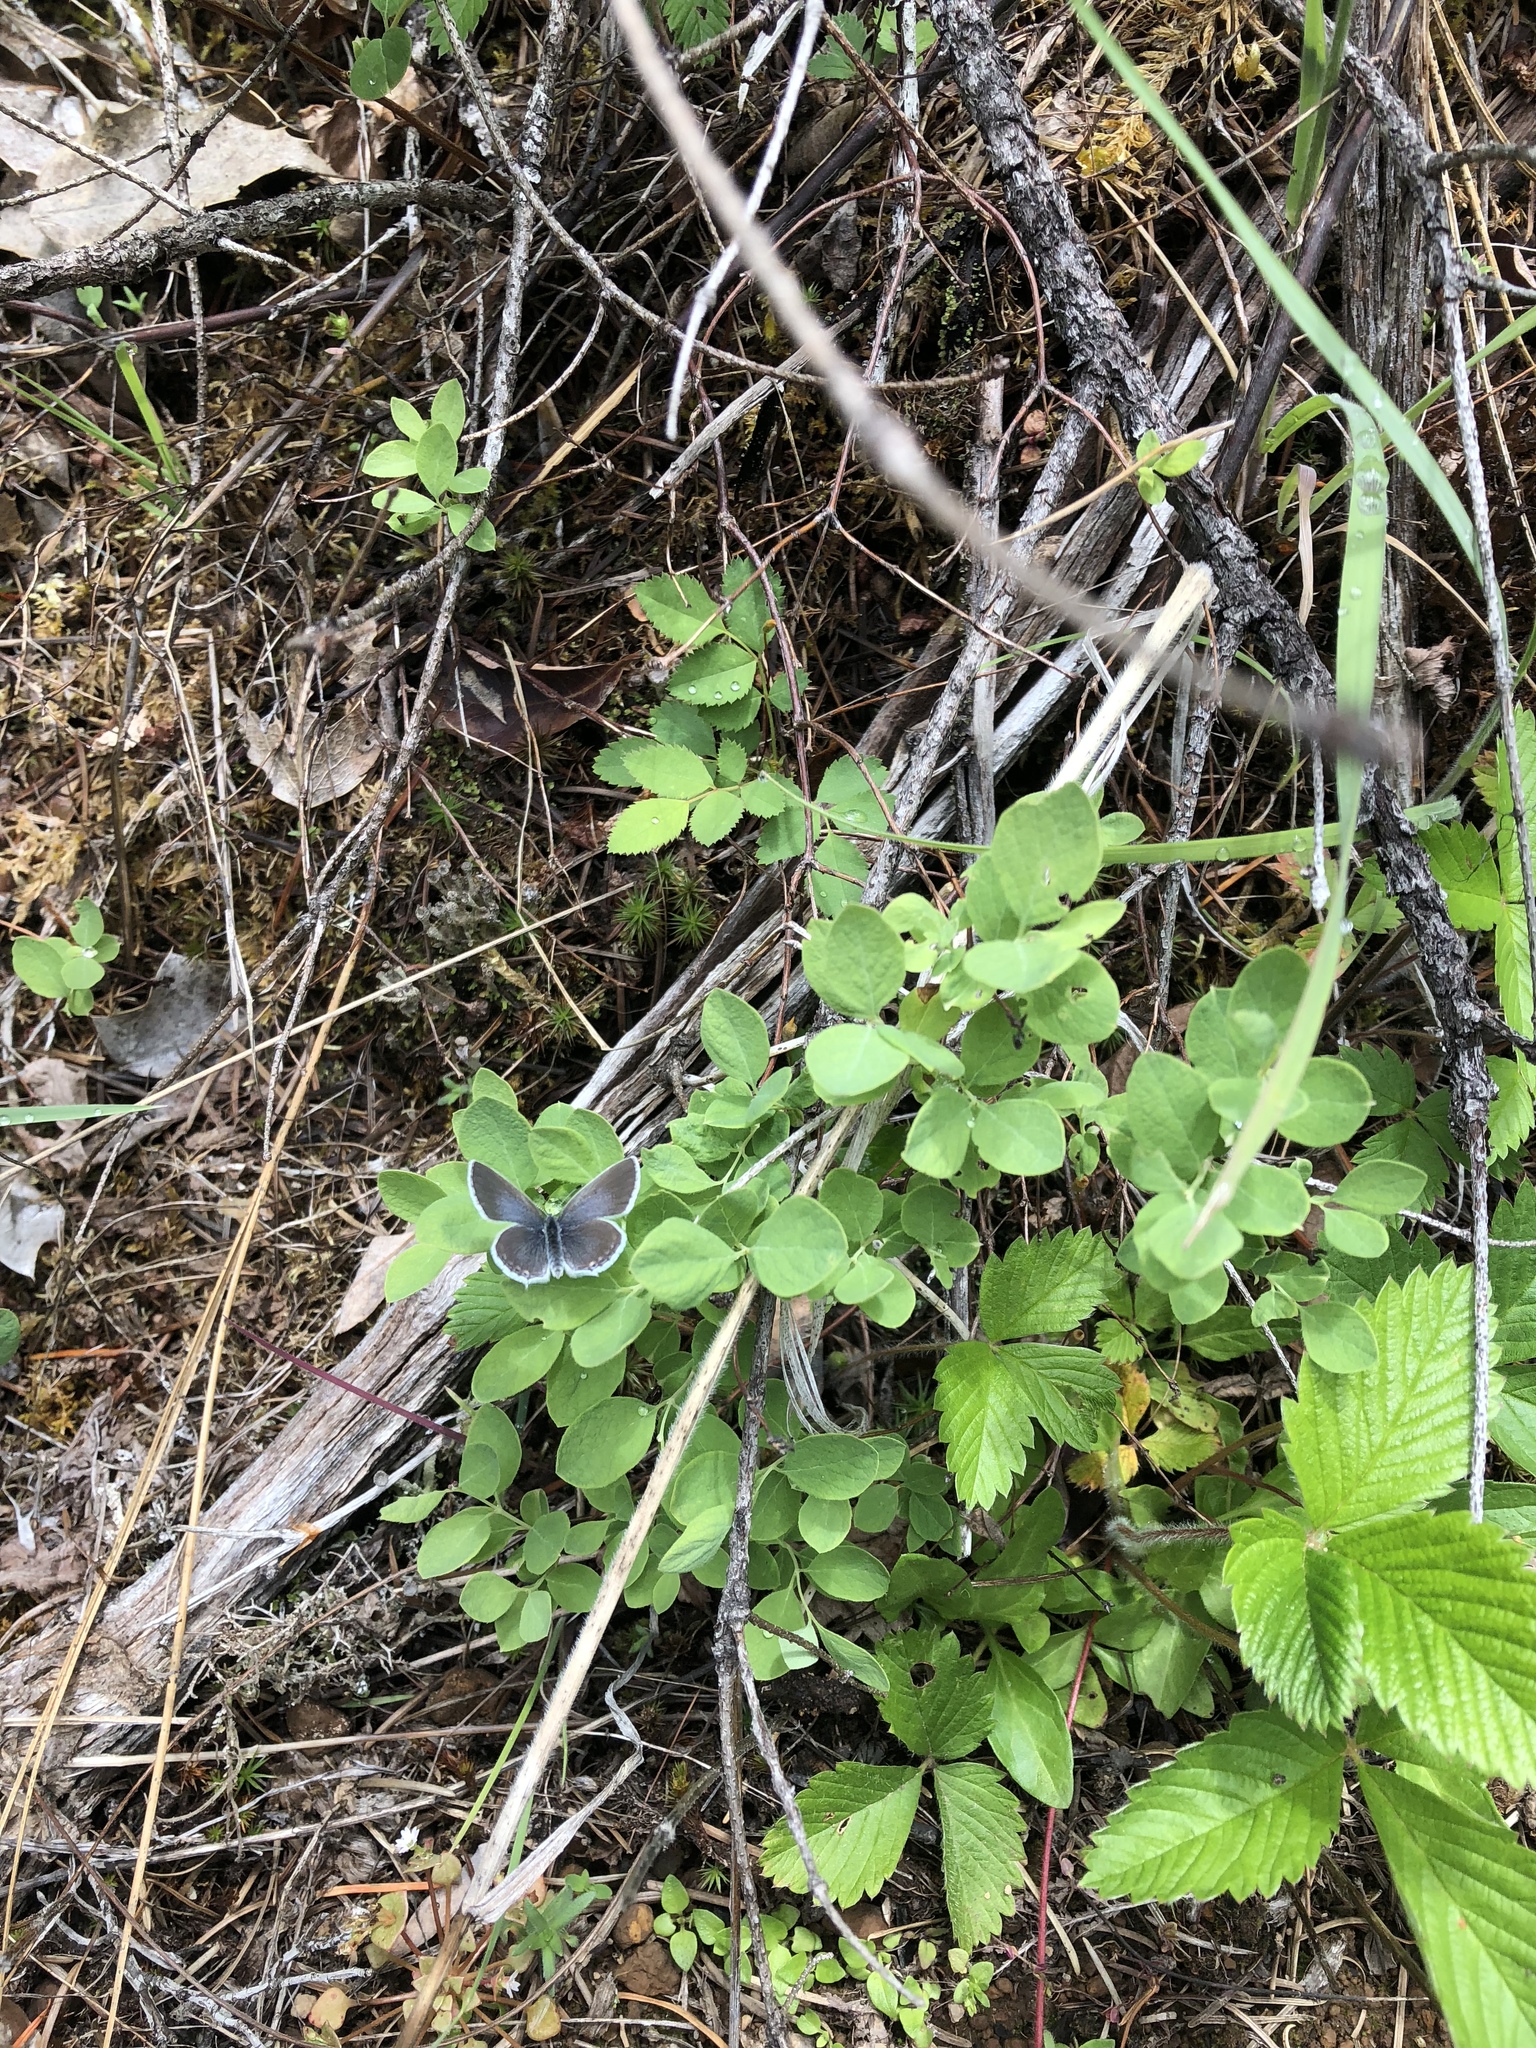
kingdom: Animalia
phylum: Arthropoda
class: Insecta
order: Lepidoptera
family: Lycaenidae
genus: Elkalyce
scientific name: Elkalyce amyntula
